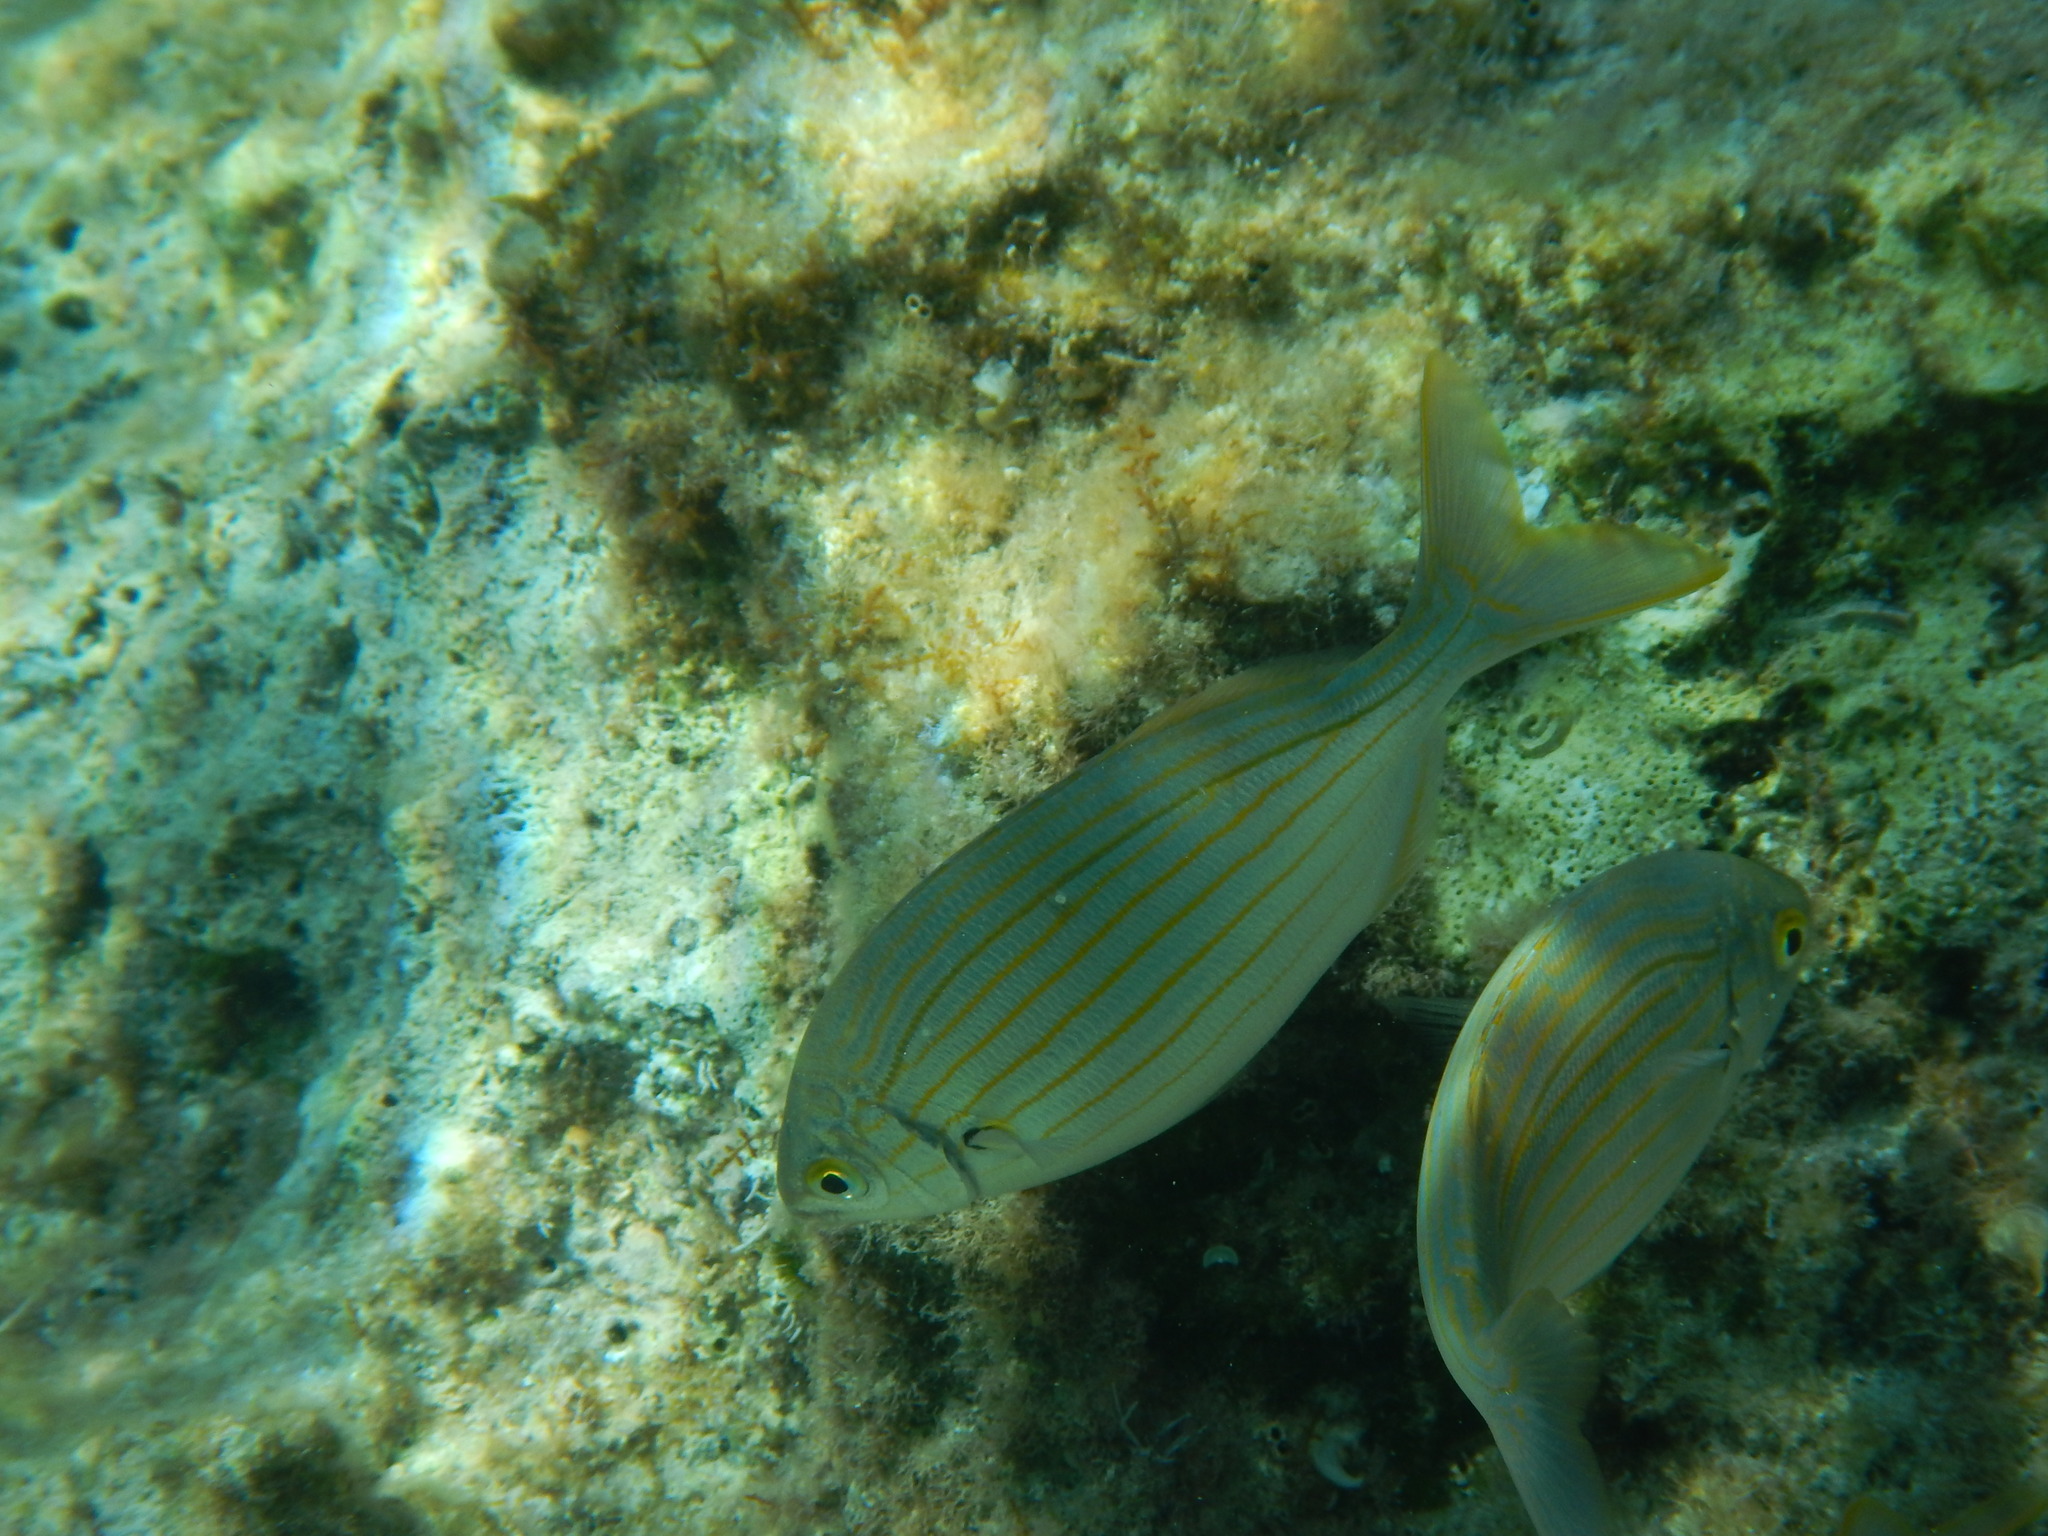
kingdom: Animalia
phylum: Chordata
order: Perciformes
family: Sparidae
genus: Sarpa
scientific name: Sarpa salpa
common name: Salema
